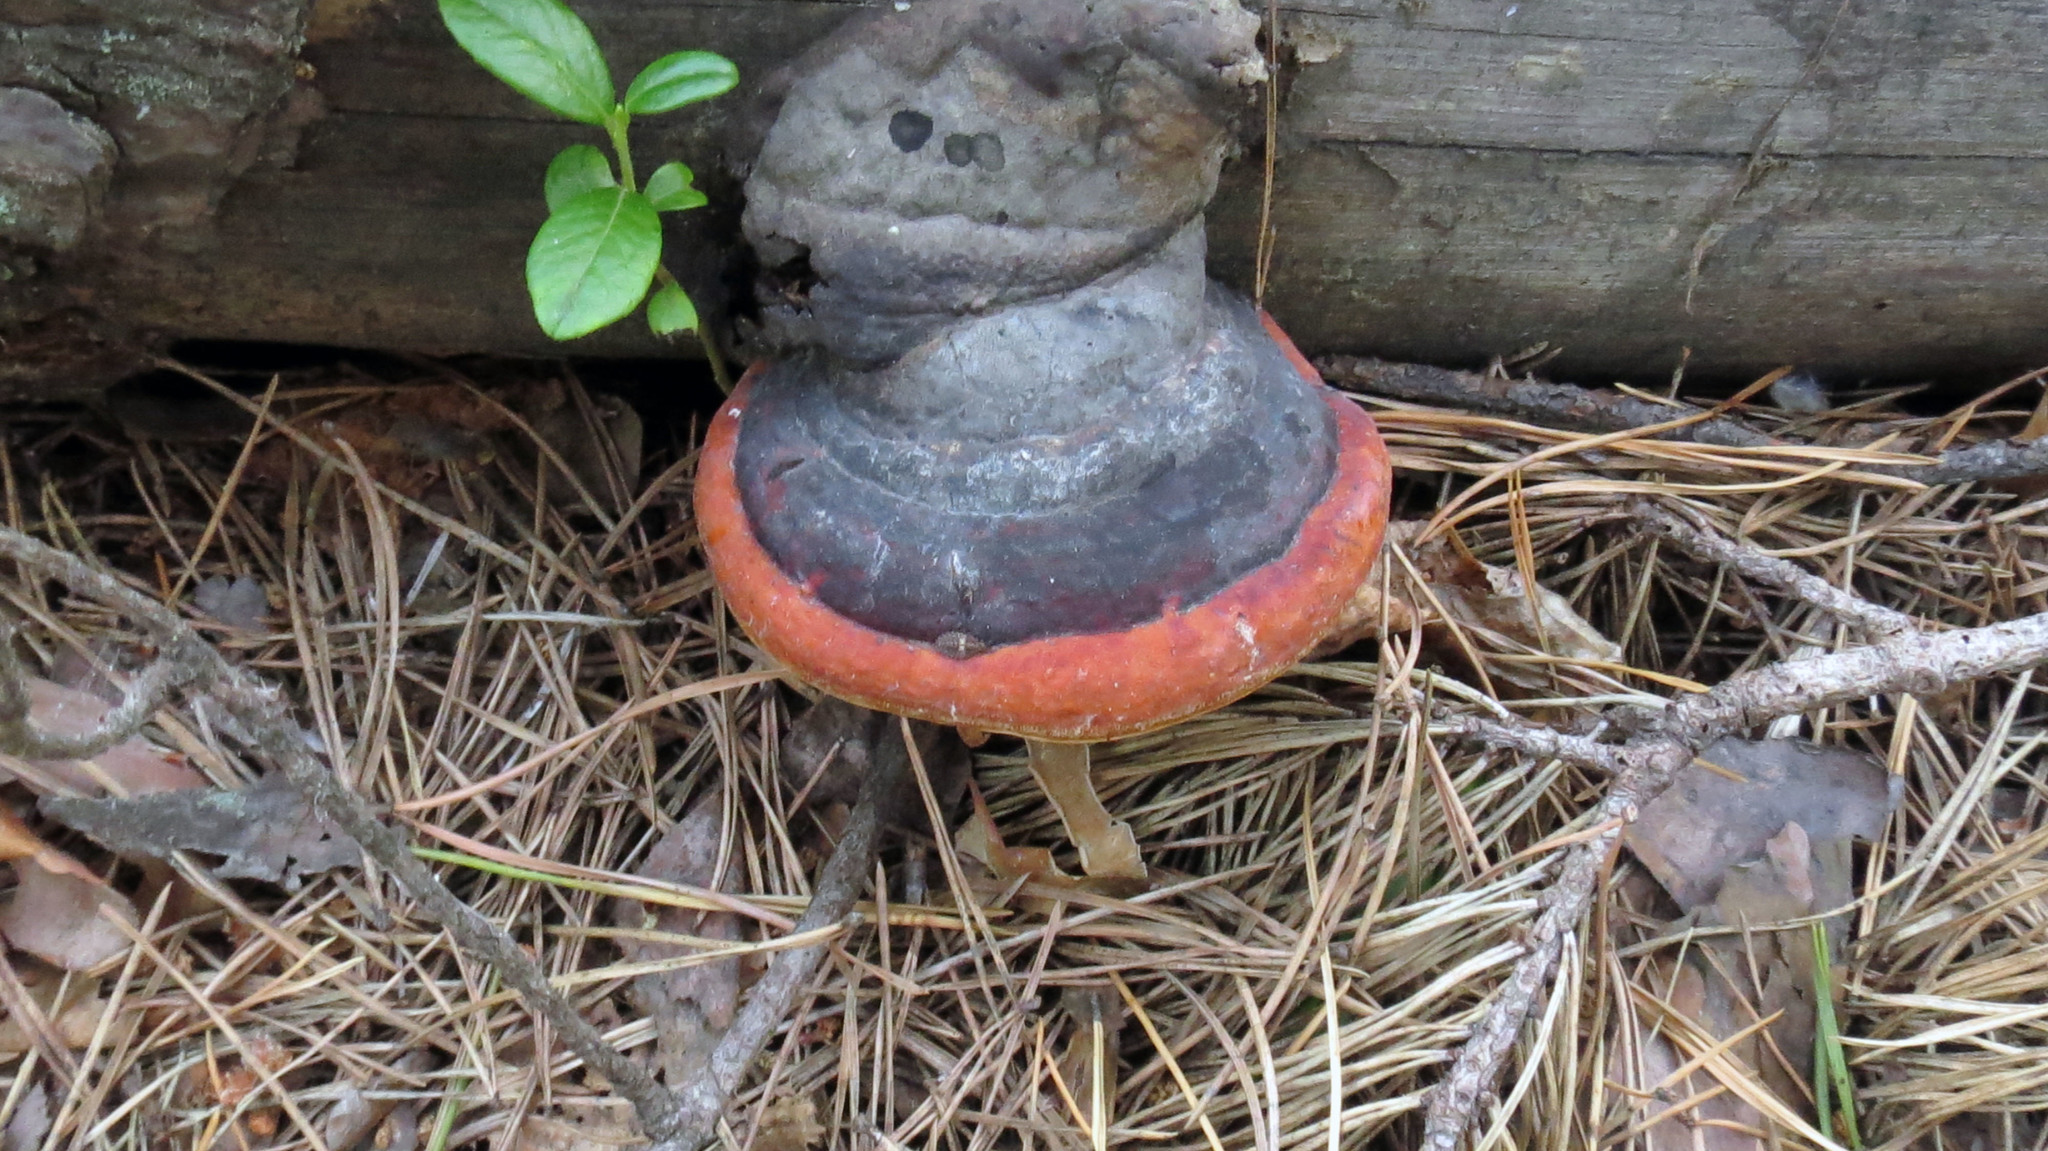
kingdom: Fungi
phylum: Basidiomycota
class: Agaricomycetes
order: Polyporales
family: Fomitopsidaceae
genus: Fomitopsis
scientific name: Fomitopsis pinicola
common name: Red-belted bracket
